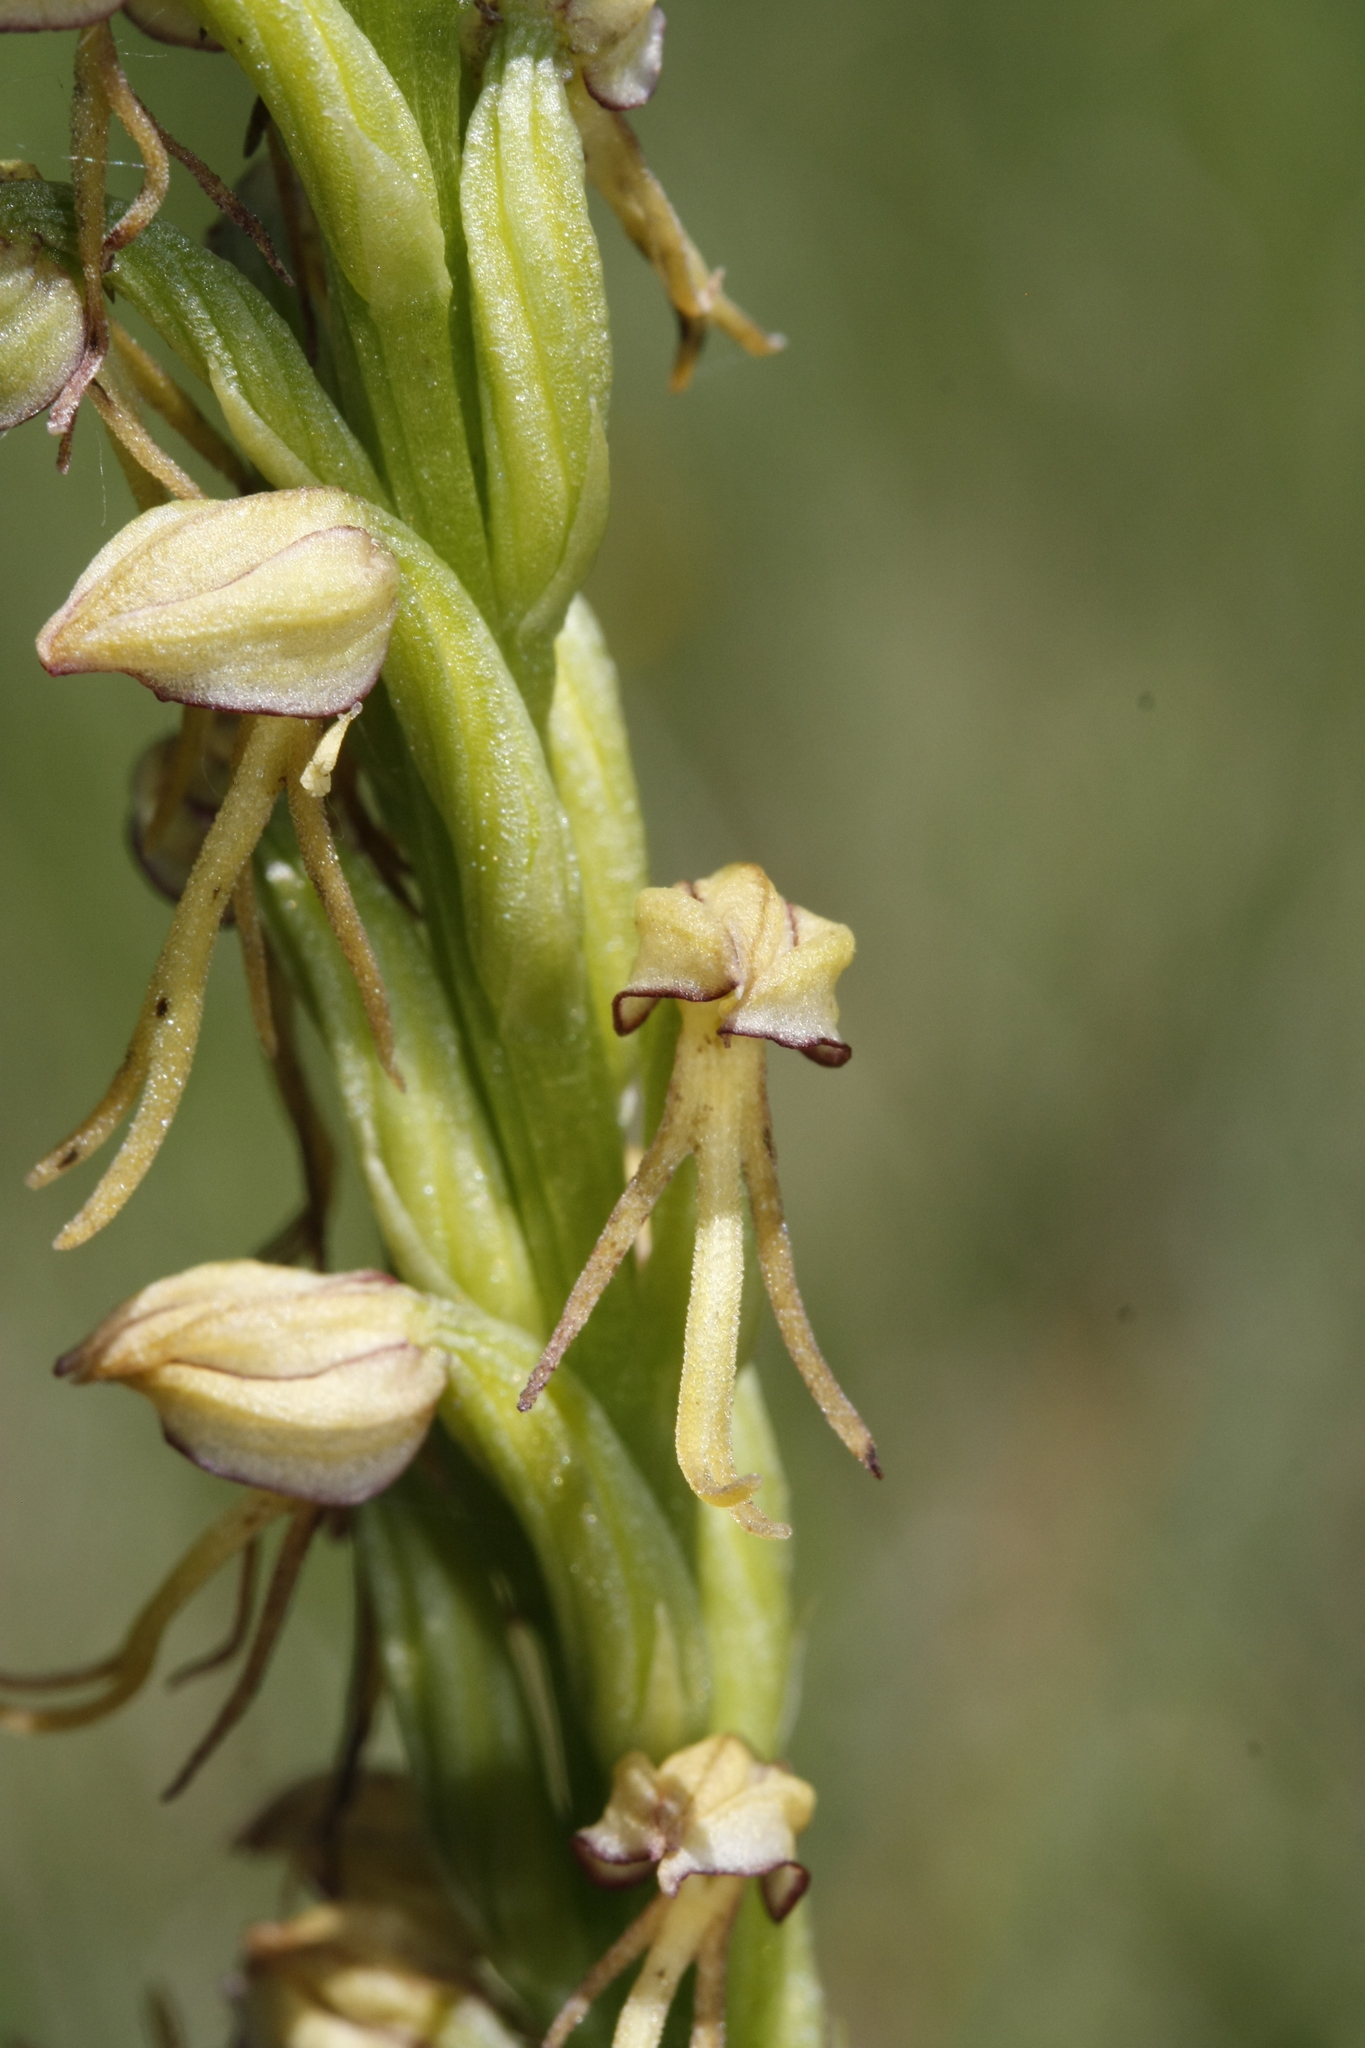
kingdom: Plantae
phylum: Tracheophyta
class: Liliopsida
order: Asparagales
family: Orchidaceae
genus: Orchis
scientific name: Orchis anthropophora
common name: Man orchid
